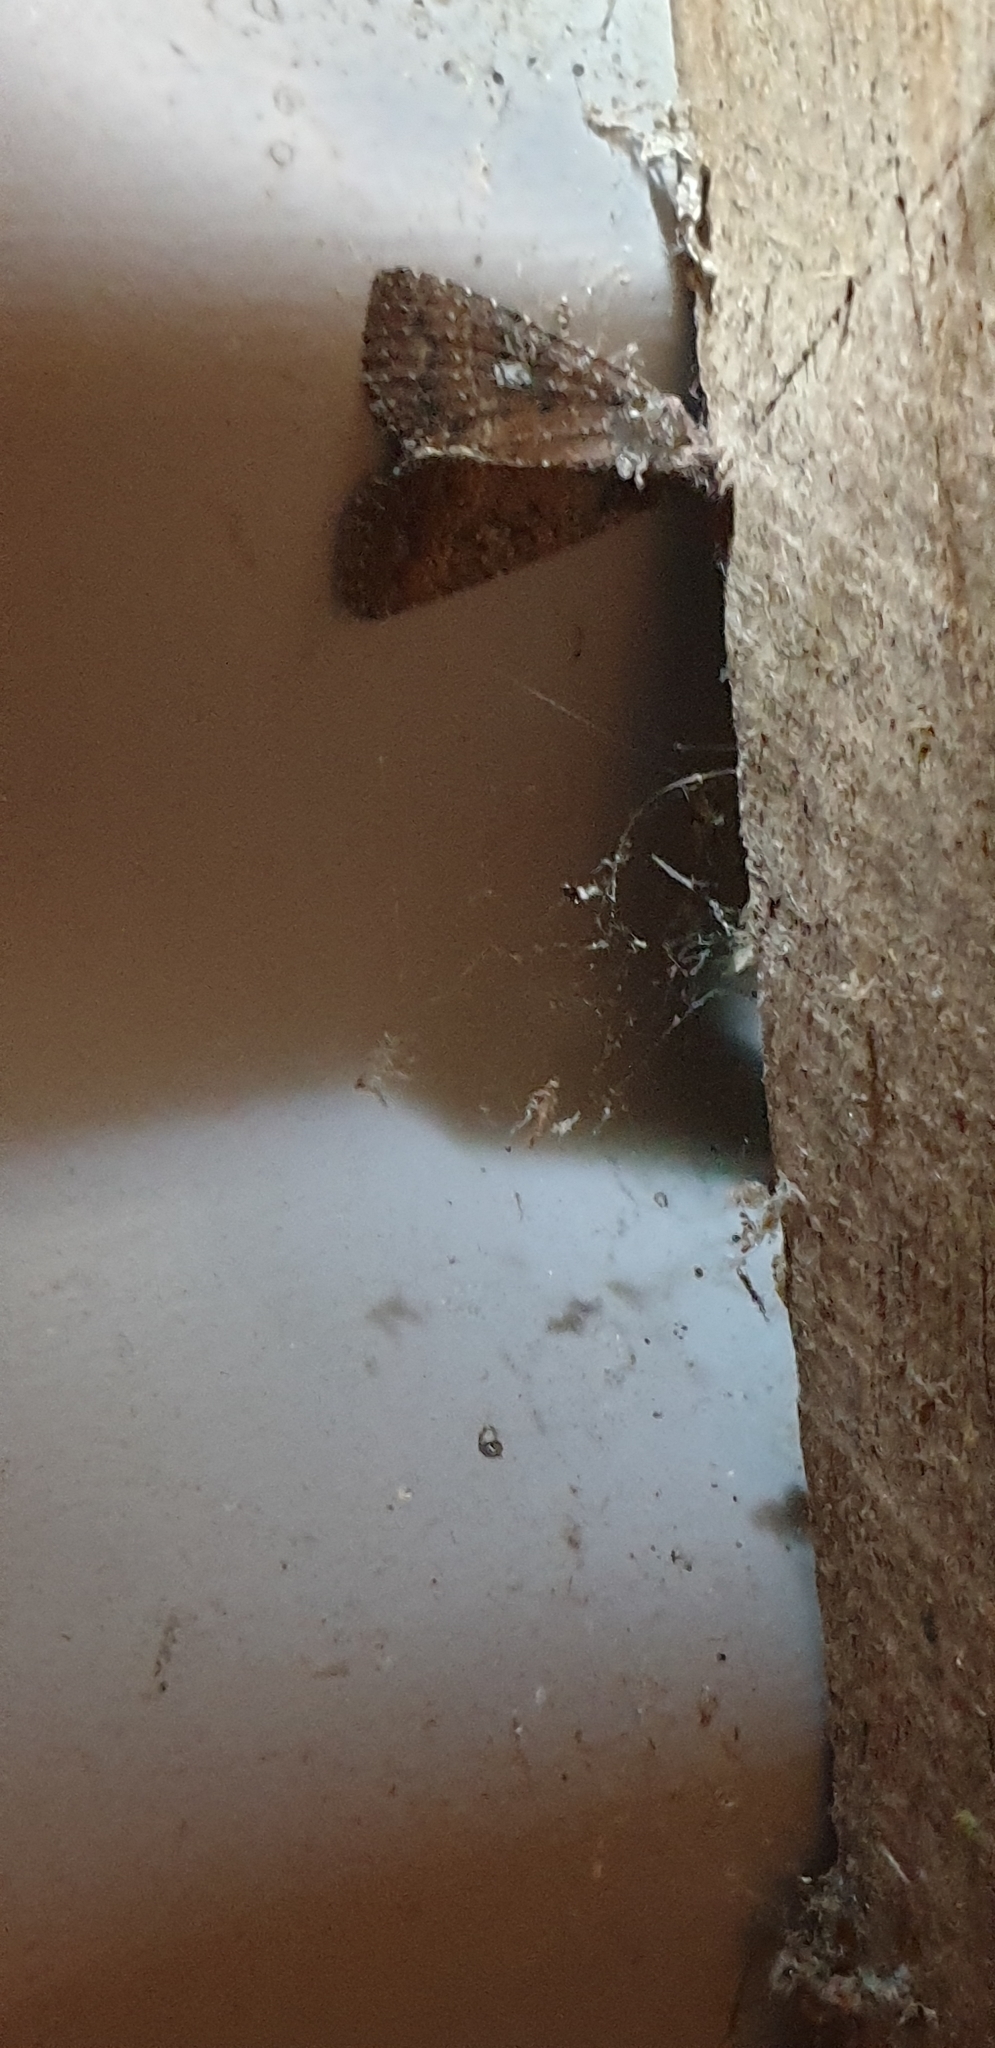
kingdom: Animalia
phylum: Arthropoda
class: Insecta
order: Lepidoptera
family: Noctuidae
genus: Condica
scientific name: Condica illecta
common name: Cutworm
